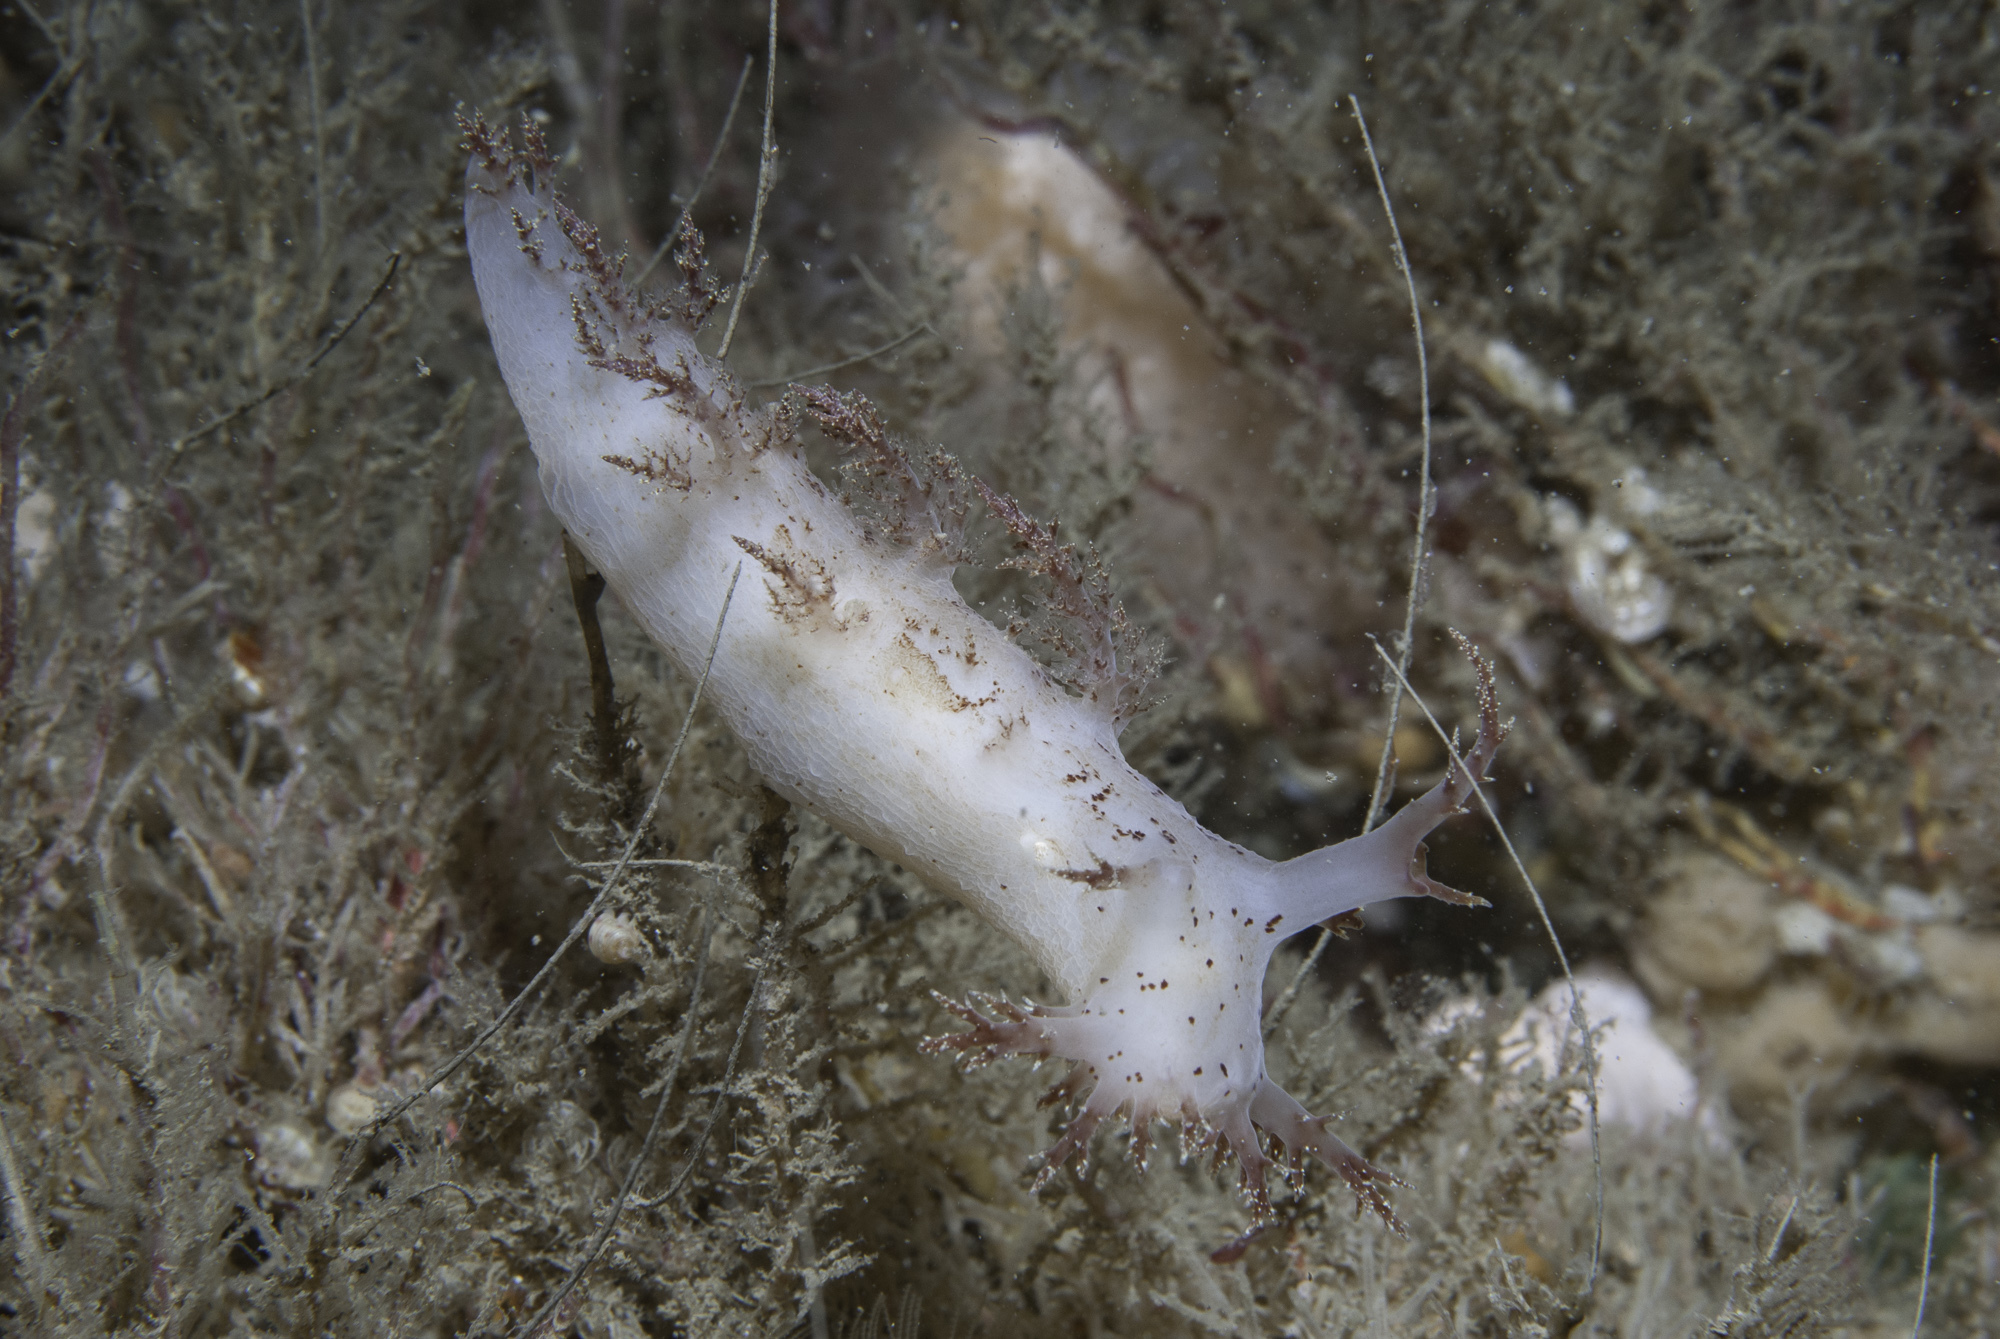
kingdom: Animalia
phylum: Mollusca
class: Gastropoda
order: Nudibranchia
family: Dendronotidae
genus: Dendronotus
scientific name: Dendronotus europaeus
